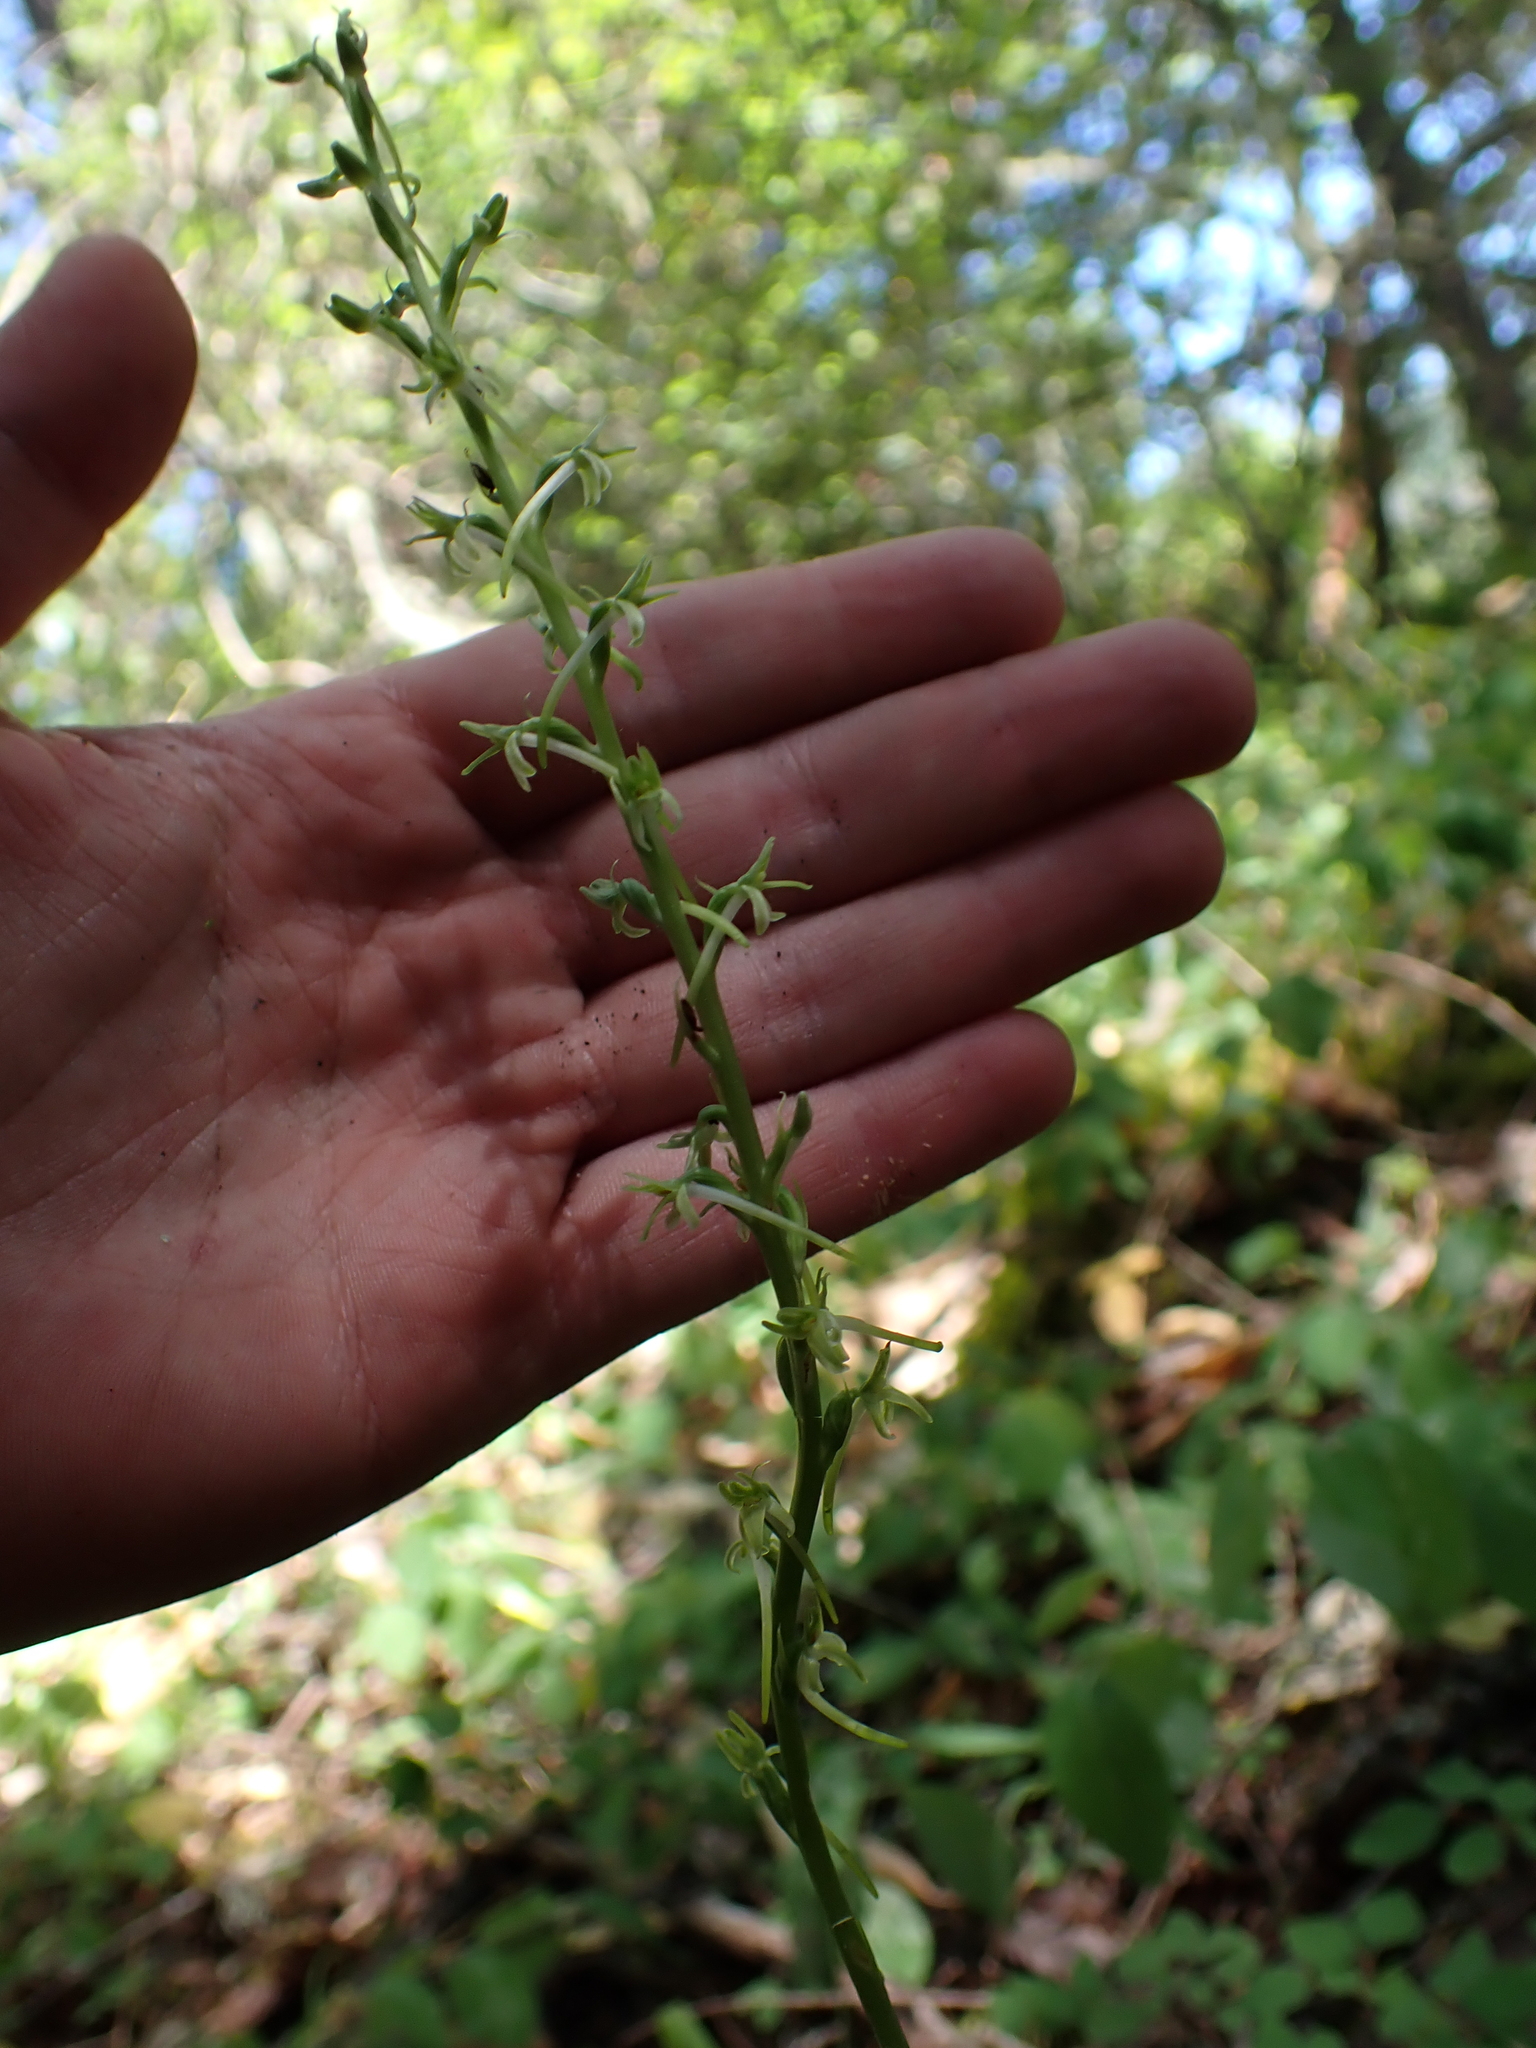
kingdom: Plantae
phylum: Tracheophyta
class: Liliopsida
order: Asparagales
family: Orchidaceae
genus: Platanthera
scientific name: Platanthera elongata
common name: Dense-flowered rein orchid
